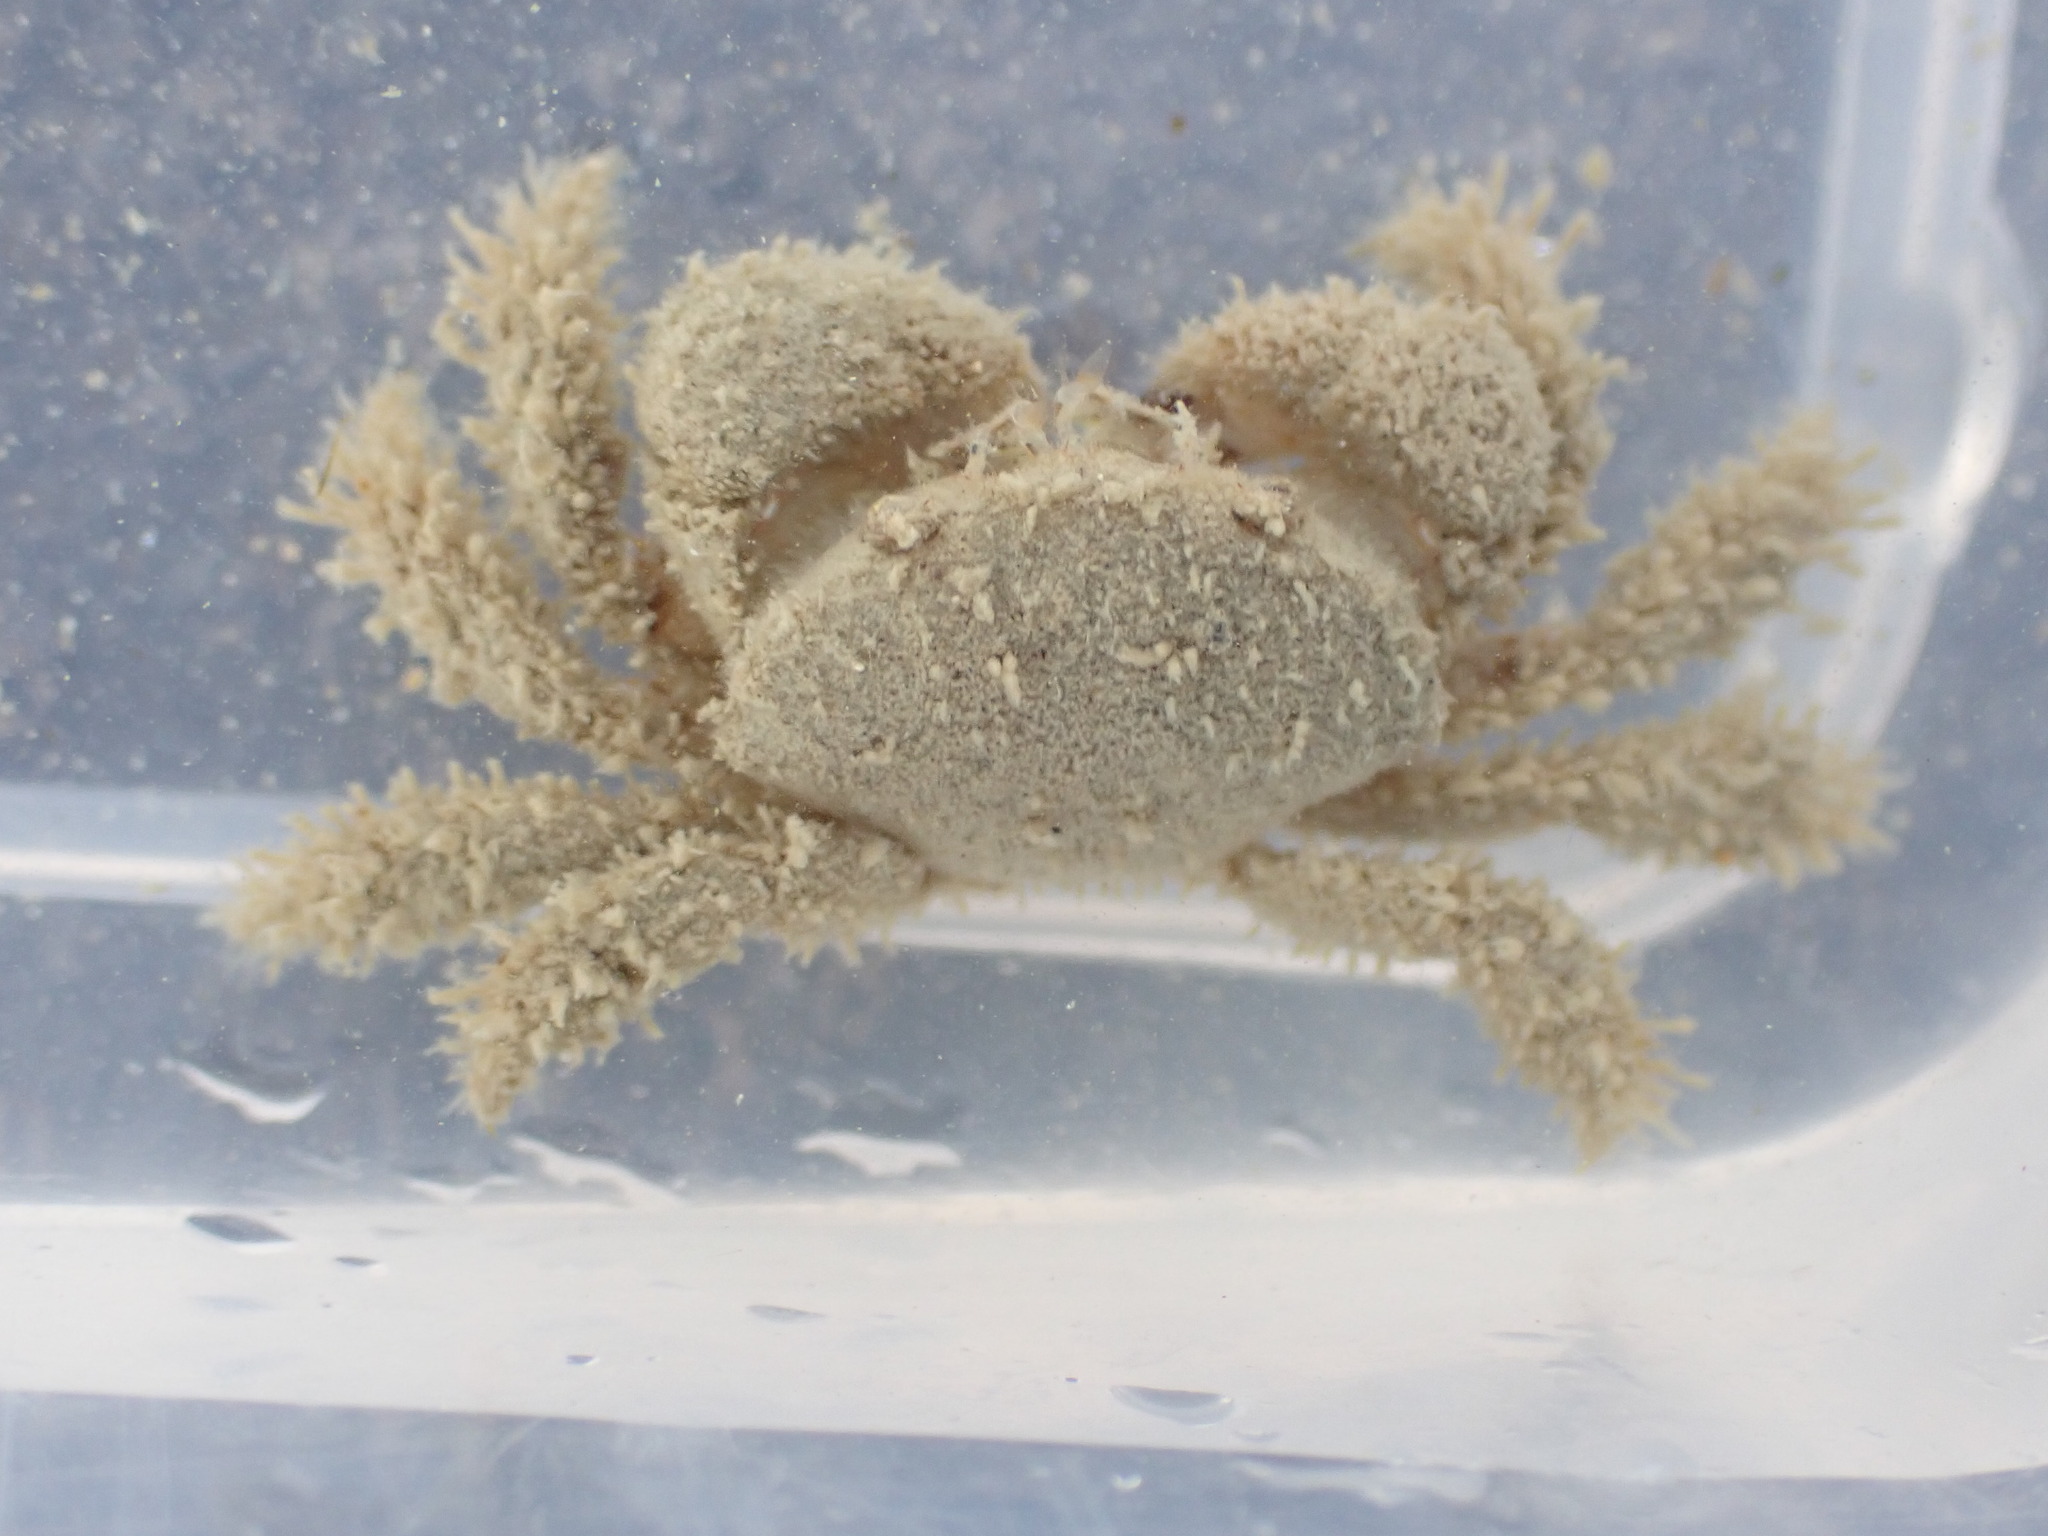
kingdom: Animalia
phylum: Arthropoda
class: Malacostraca
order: Decapoda
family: Pilumnidae
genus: Pilumnus
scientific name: Pilumnus lumpinus
